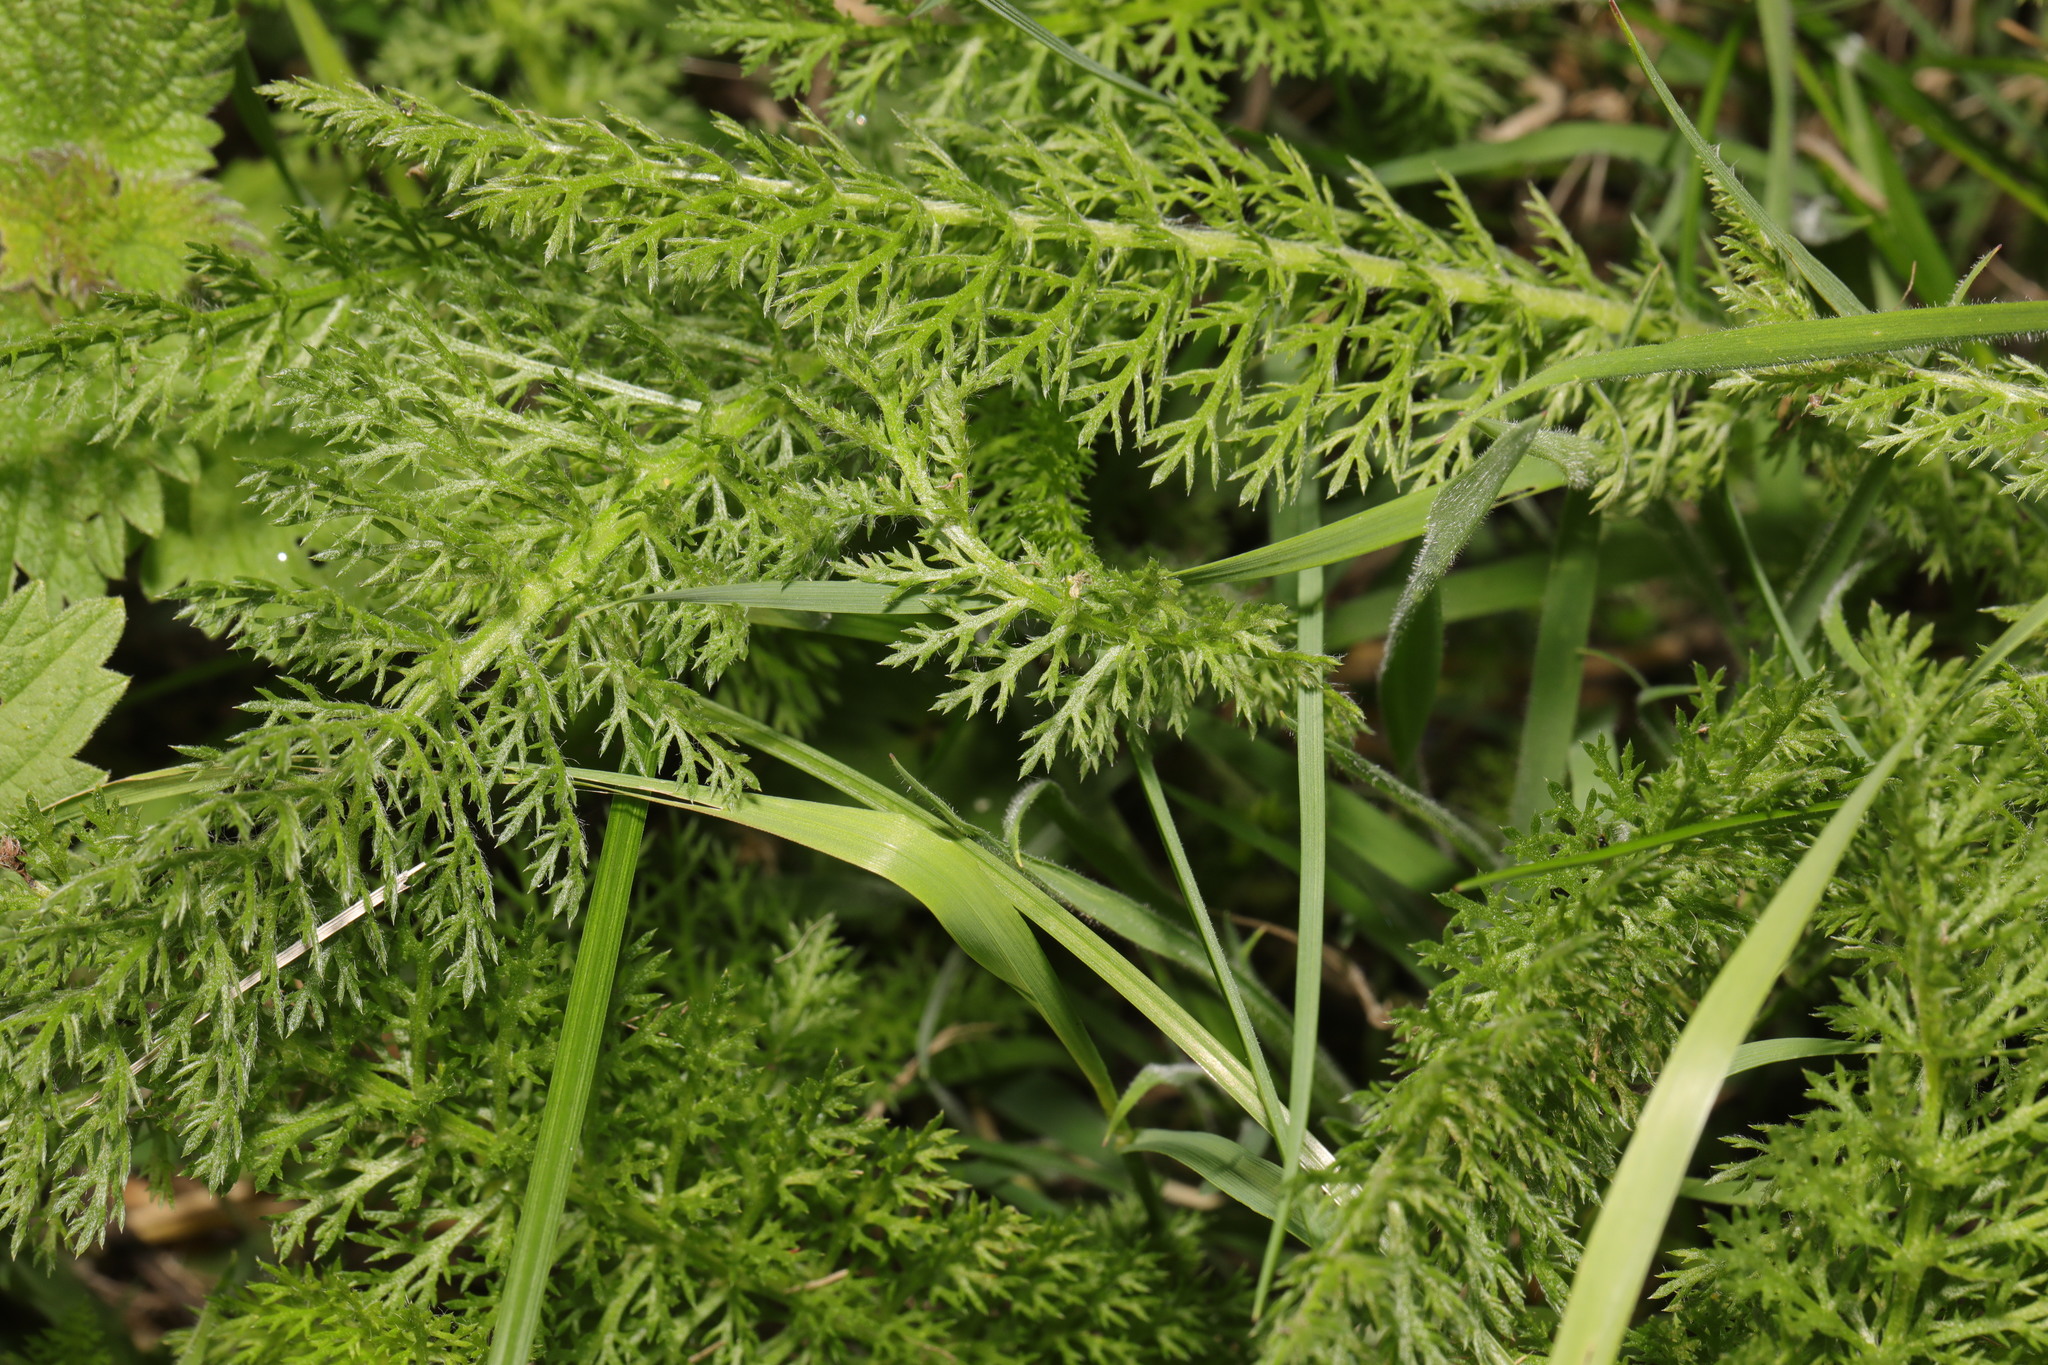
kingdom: Plantae
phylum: Tracheophyta
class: Magnoliopsida
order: Asterales
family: Asteraceae
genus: Achillea
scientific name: Achillea millefolium
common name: Yarrow
